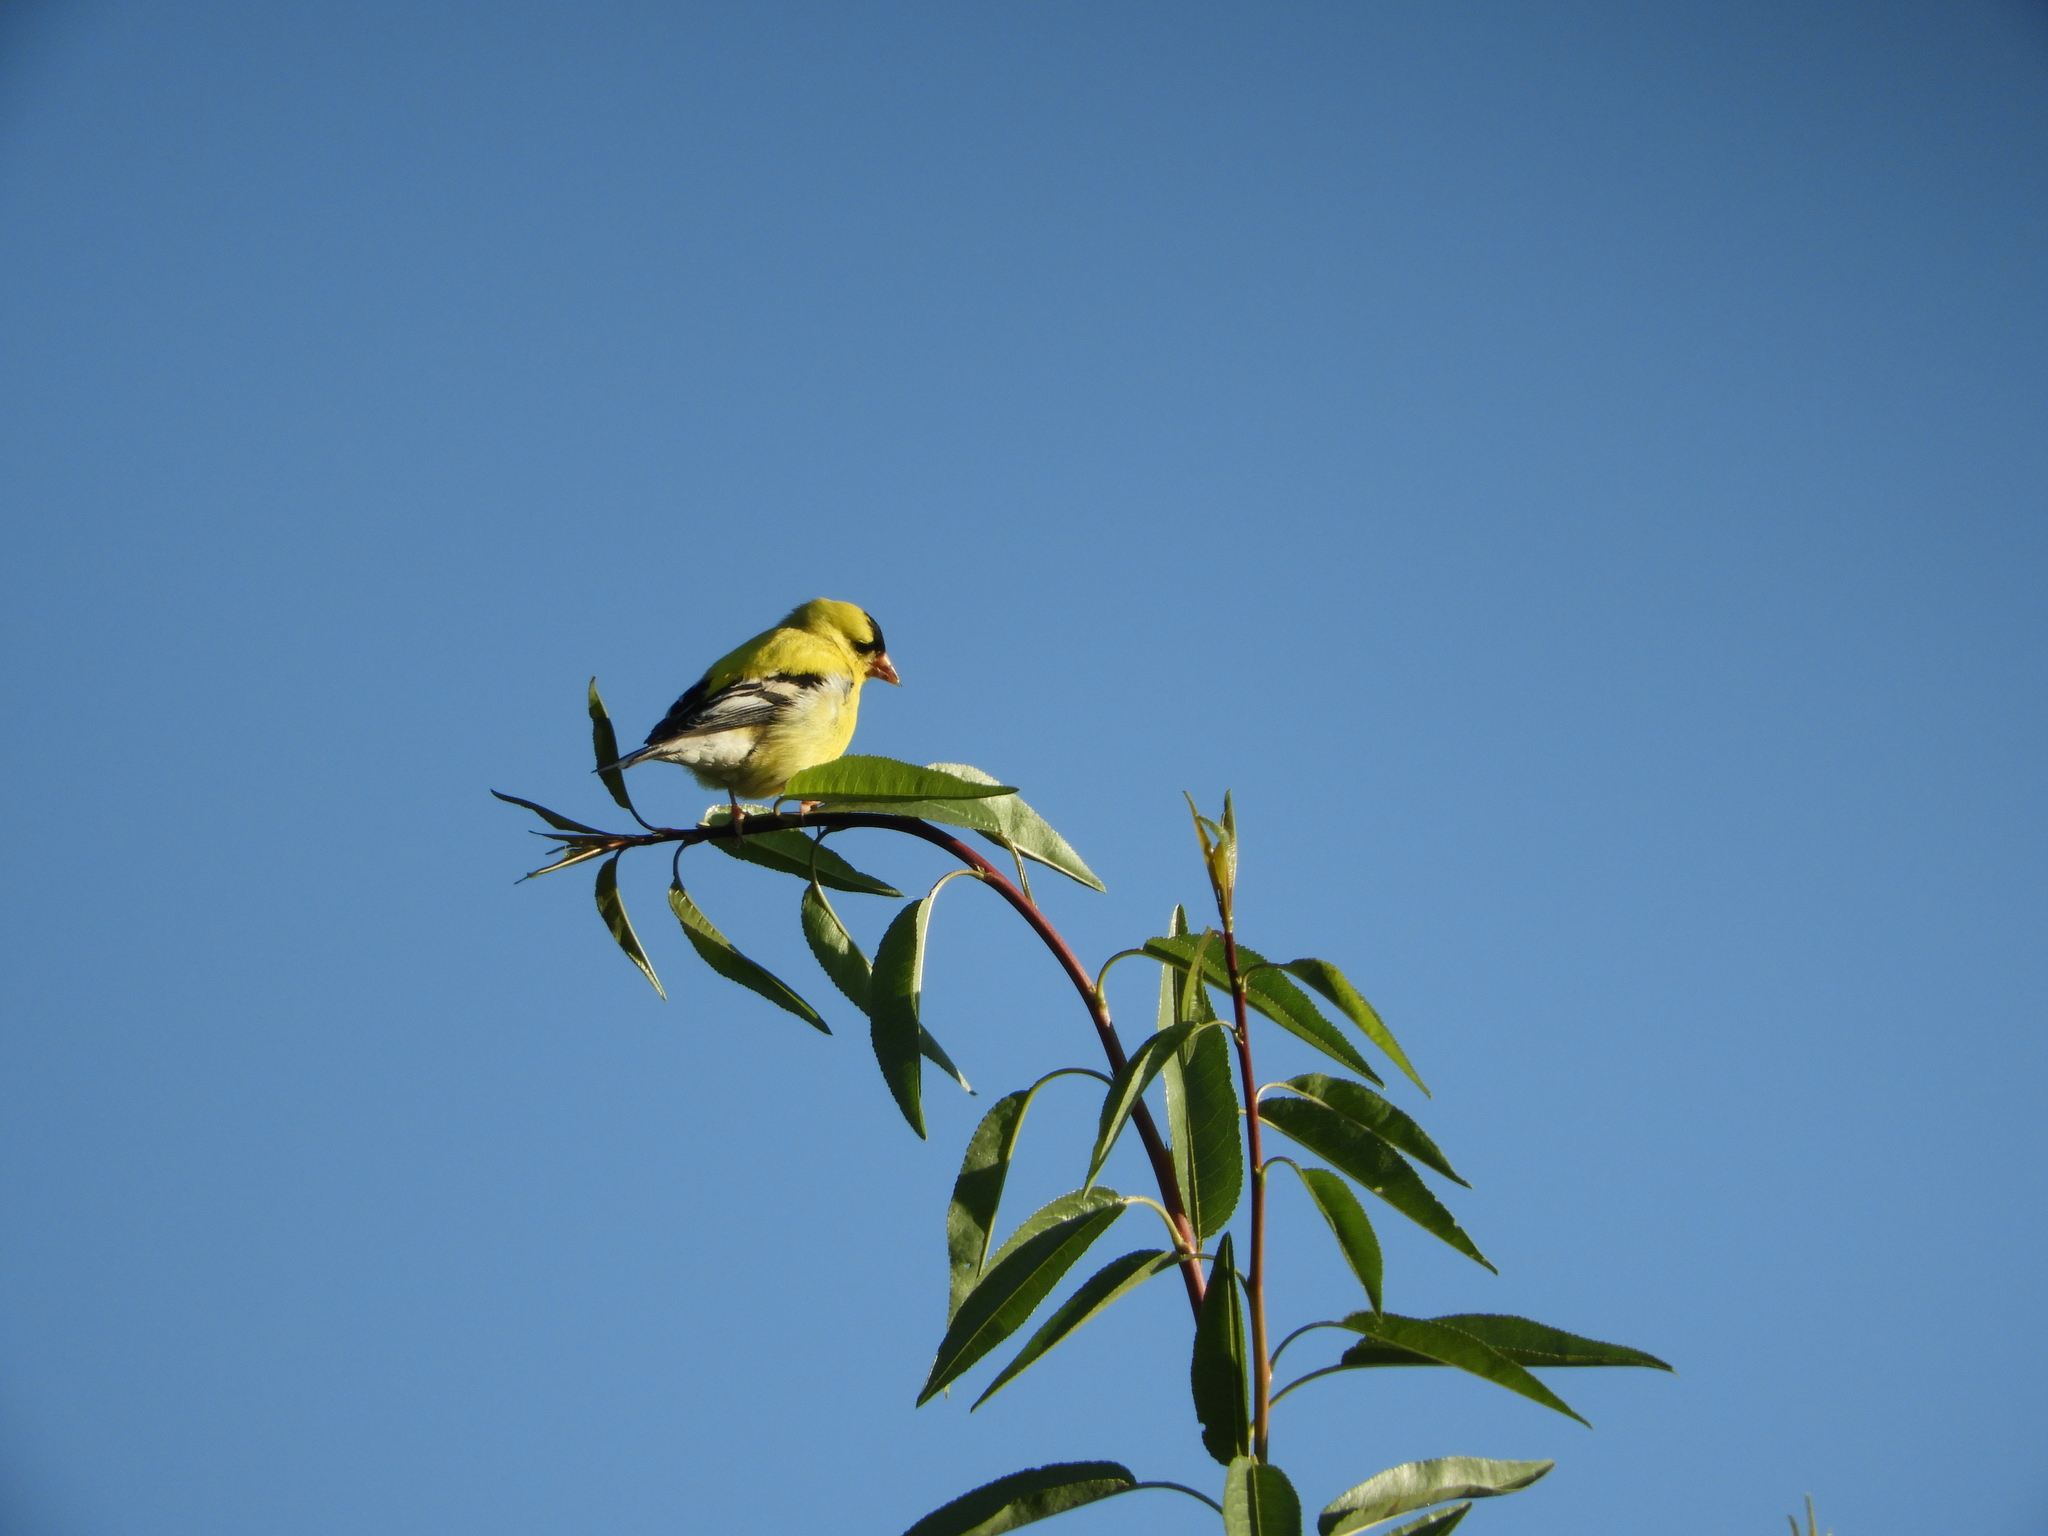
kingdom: Animalia
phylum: Chordata
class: Aves
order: Passeriformes
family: Fringillidae
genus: Spinus
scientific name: Spinus tristis
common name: American goldfinch
